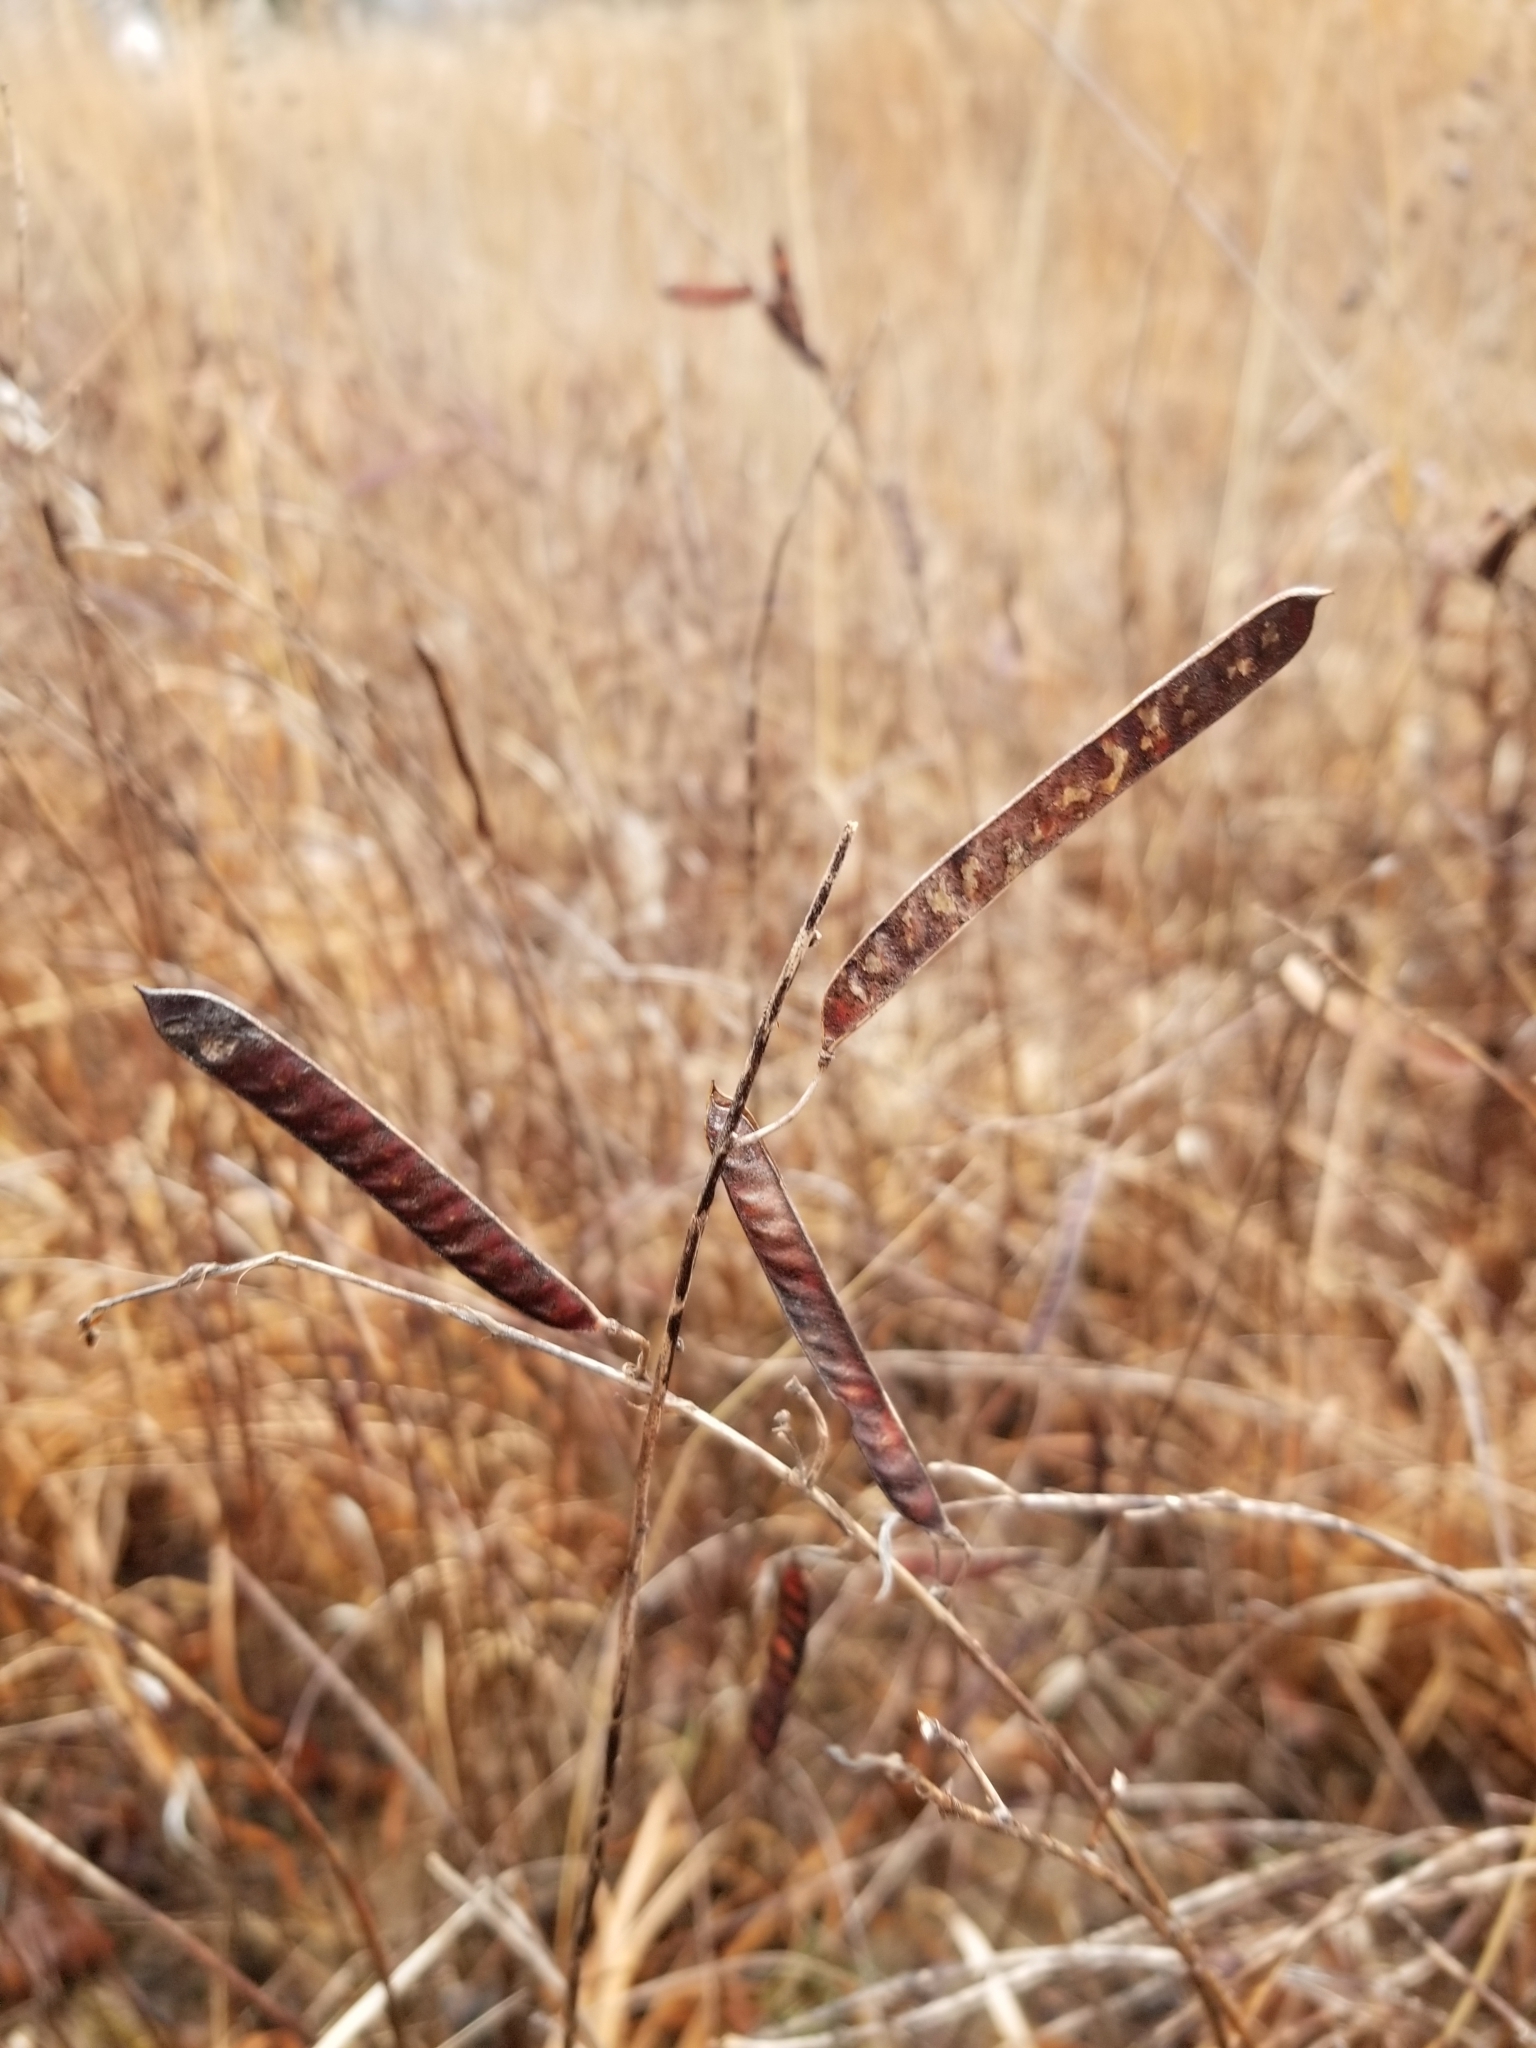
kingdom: Plantae
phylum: Tracheophyta
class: Magnoliopsida
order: Fabales
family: Fabaceae
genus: Chamaecrista
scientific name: Chamaecrista fasciculata
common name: Golden cassia
